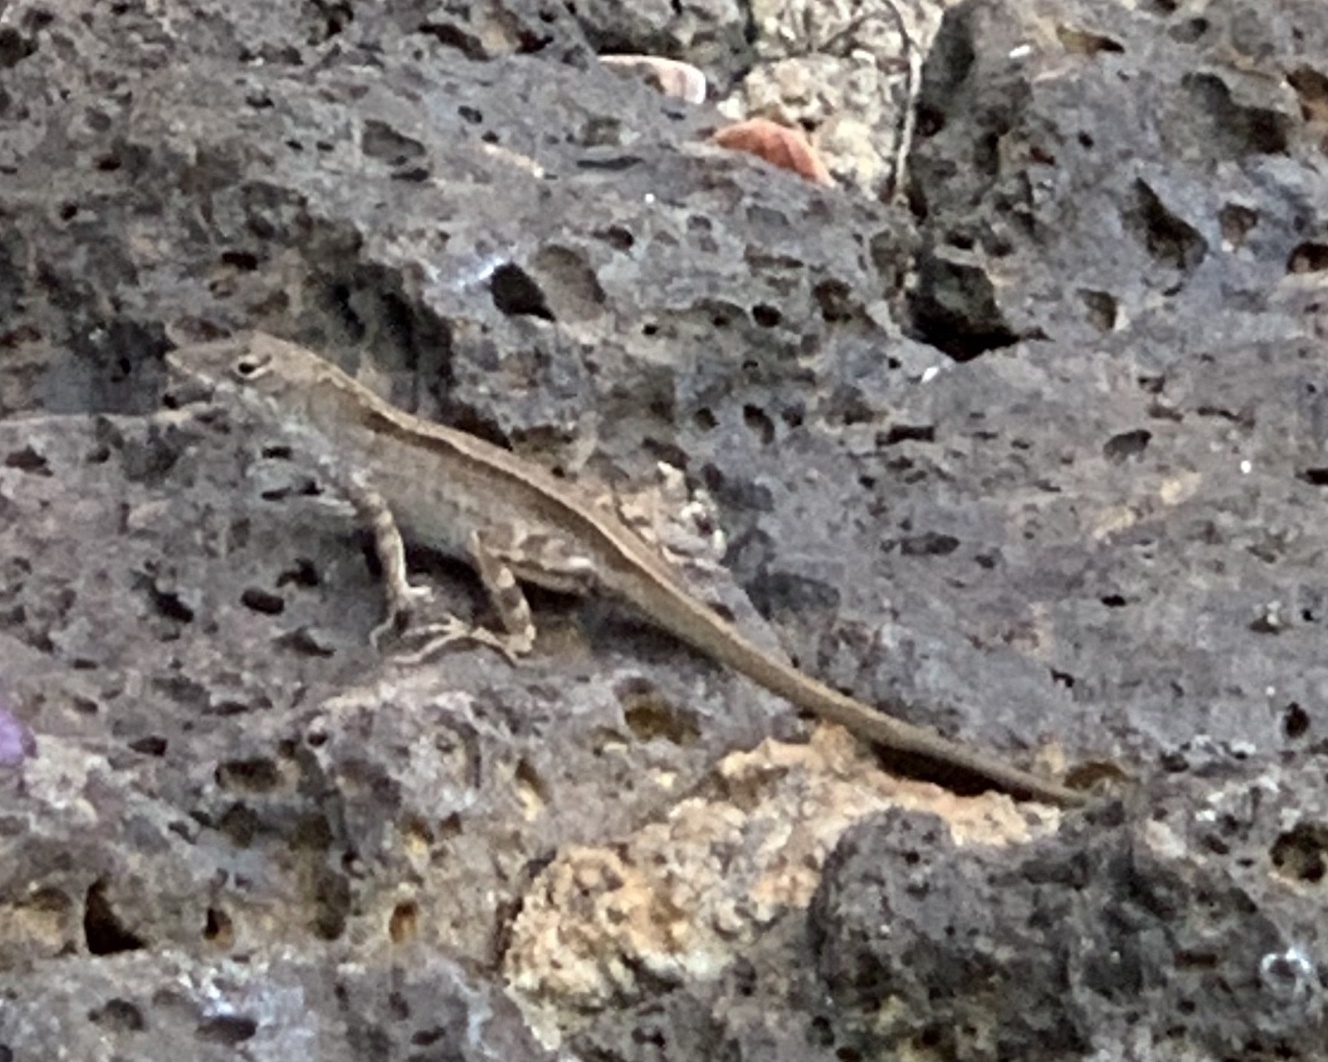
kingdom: Animalia
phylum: Chordata
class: Squamata
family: Dactyloidae
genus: Anolis
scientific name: Anolis sagrei
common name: Brown anole
